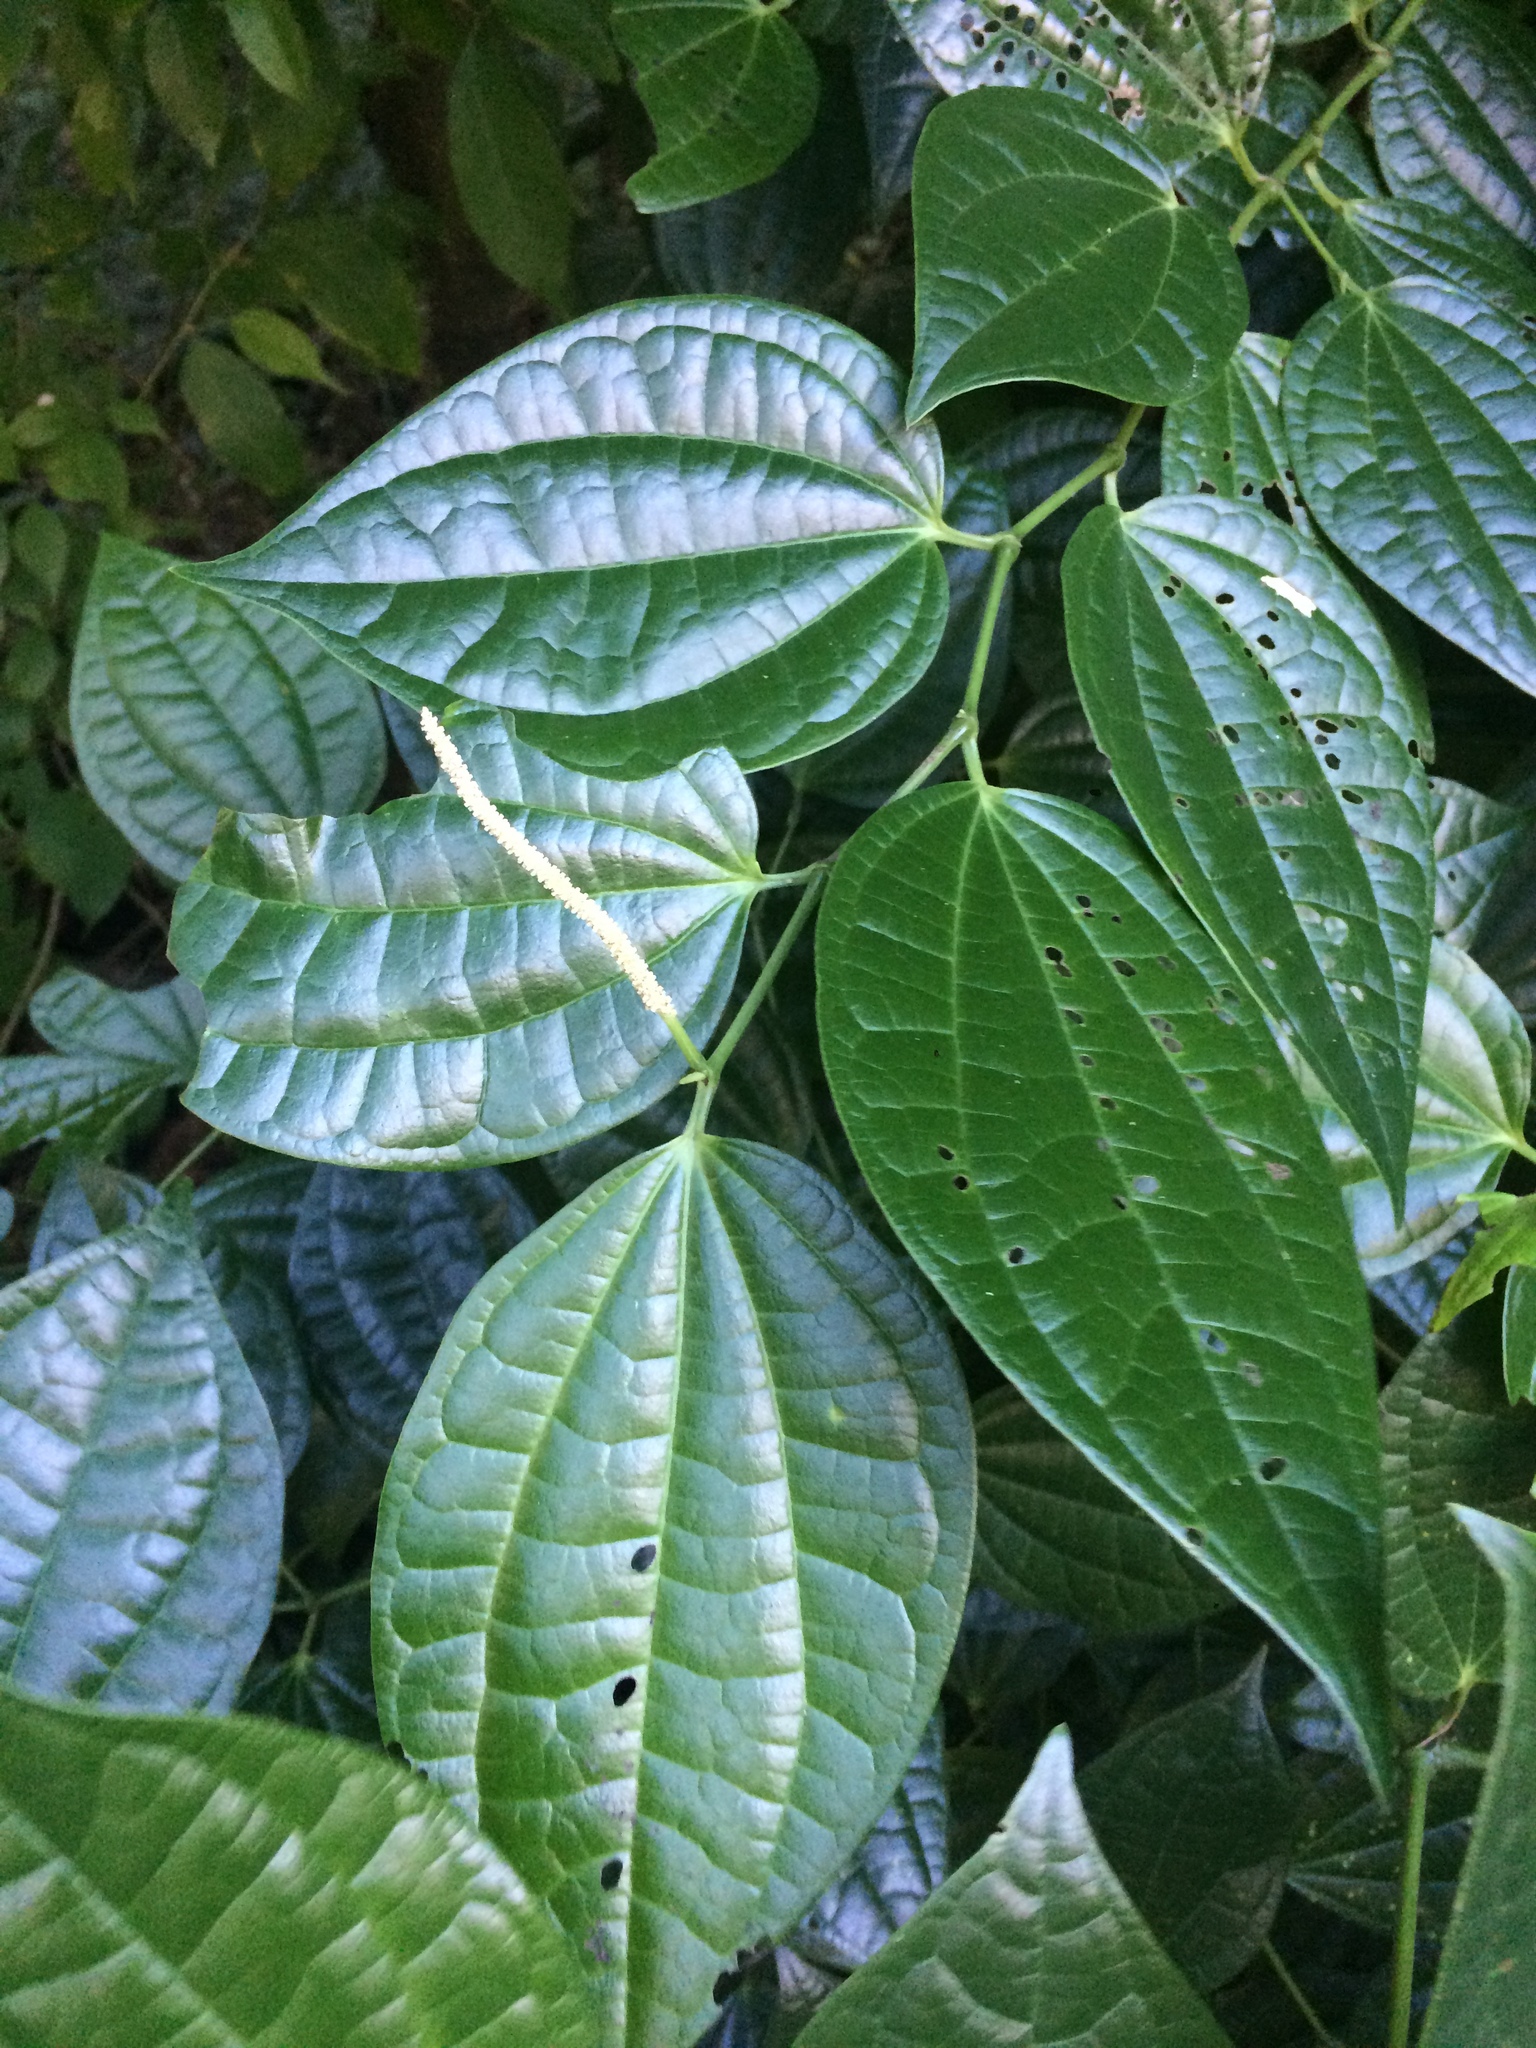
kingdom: Plantae
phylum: Tracheophyta
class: Magnoliopsida
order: Piperales
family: Piperaceae
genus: Piper
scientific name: Piper amalago
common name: Pepper-elder
